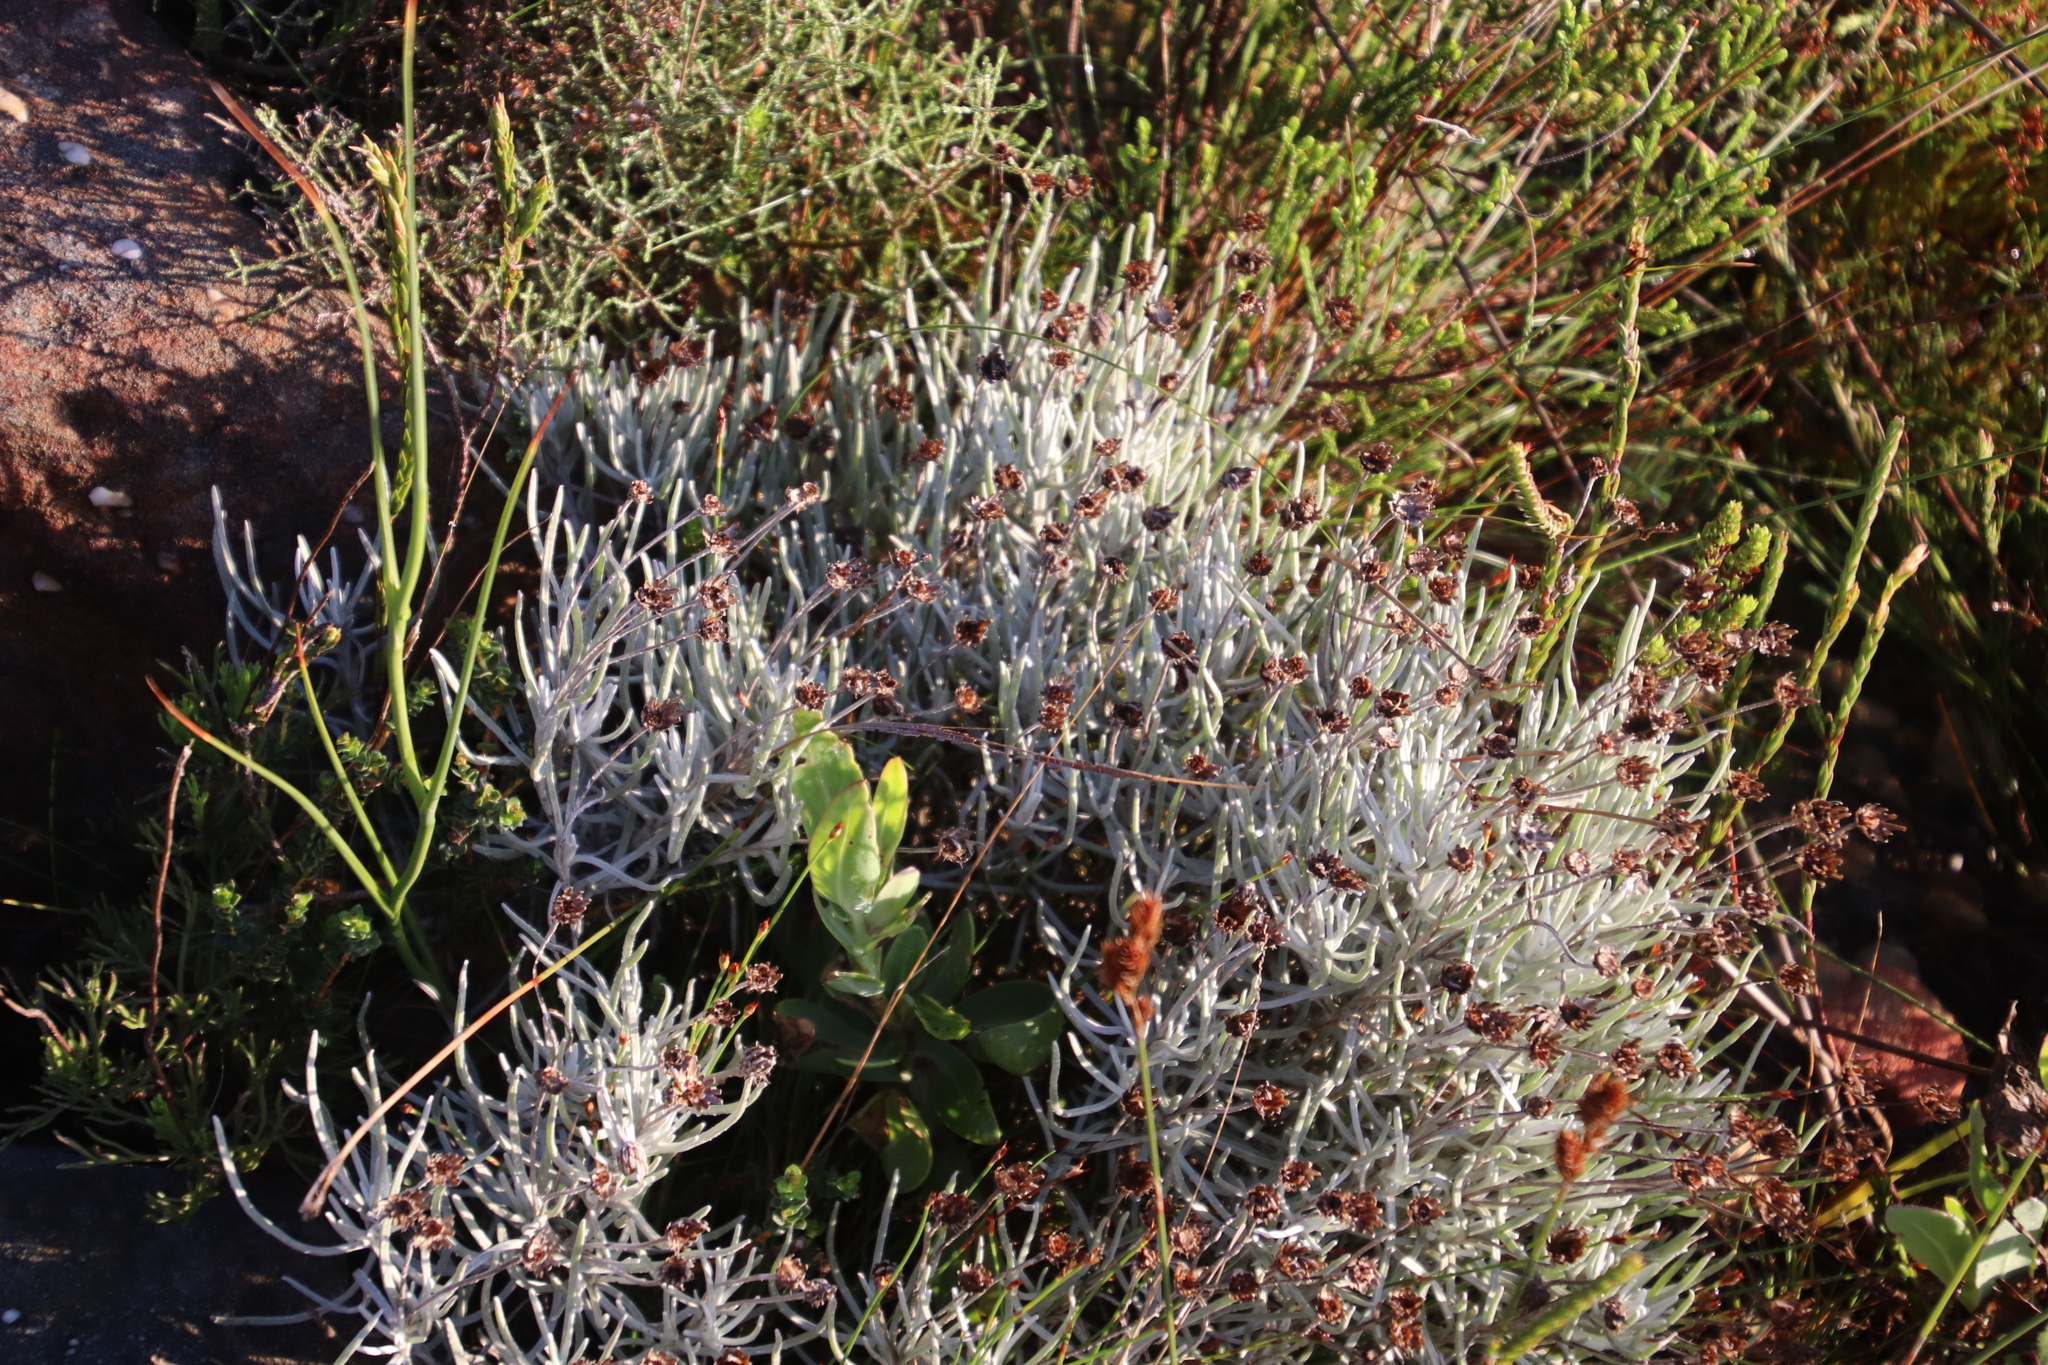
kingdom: Plantae
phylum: Tracheophyta
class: Magnoliopsida
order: Asterales
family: Asteraceae
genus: Syncarpha
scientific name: Syncarpha gnaphaloides
